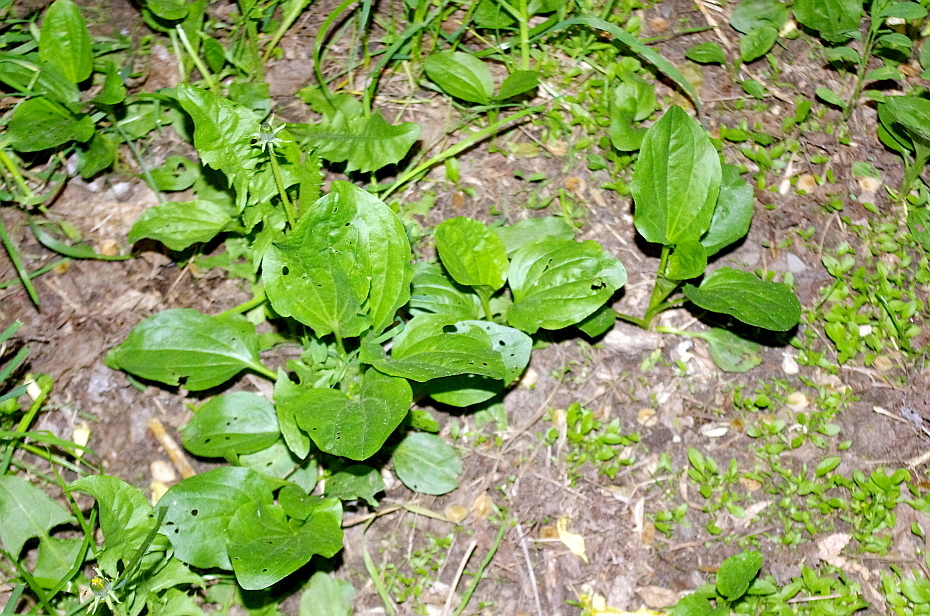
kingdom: Plantae
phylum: Tracheophyta
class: Magnoliopsida
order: Lamiales
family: Plantaginaceae
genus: Plantago
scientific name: Plantago major
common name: Common plantain
